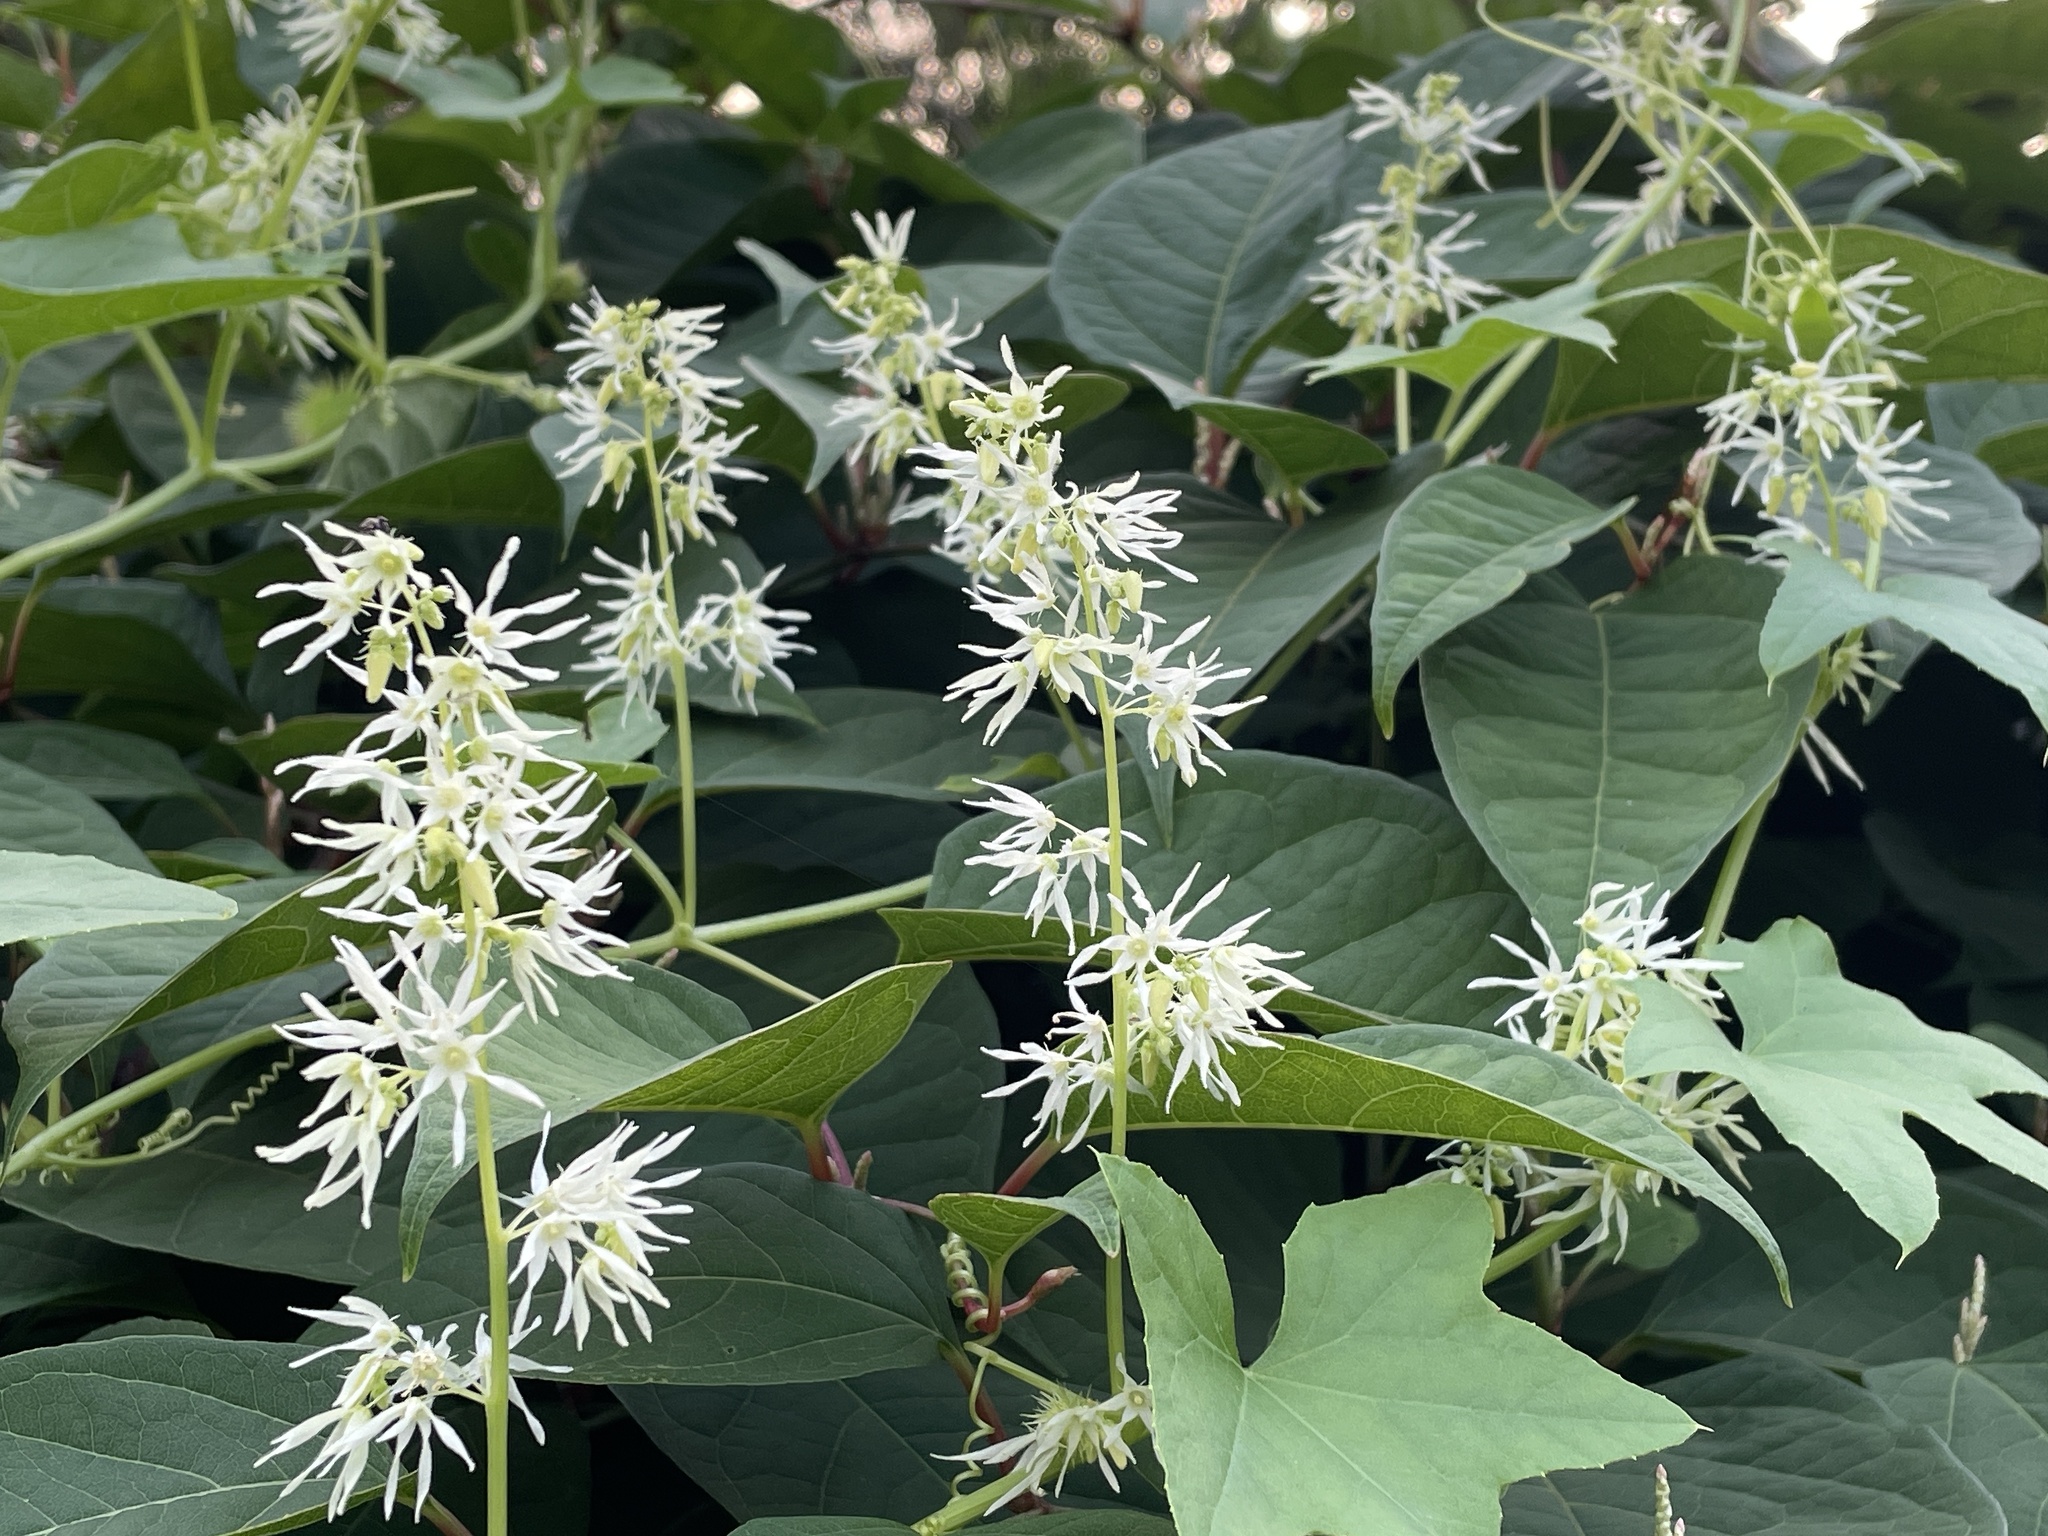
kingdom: Plantae
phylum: Tracheophyta
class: Magnoliopsida
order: Cucurbitales
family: Cucurbitaceae
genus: Echinocystis
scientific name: Echinocystis lobata
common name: Wild cucumber
